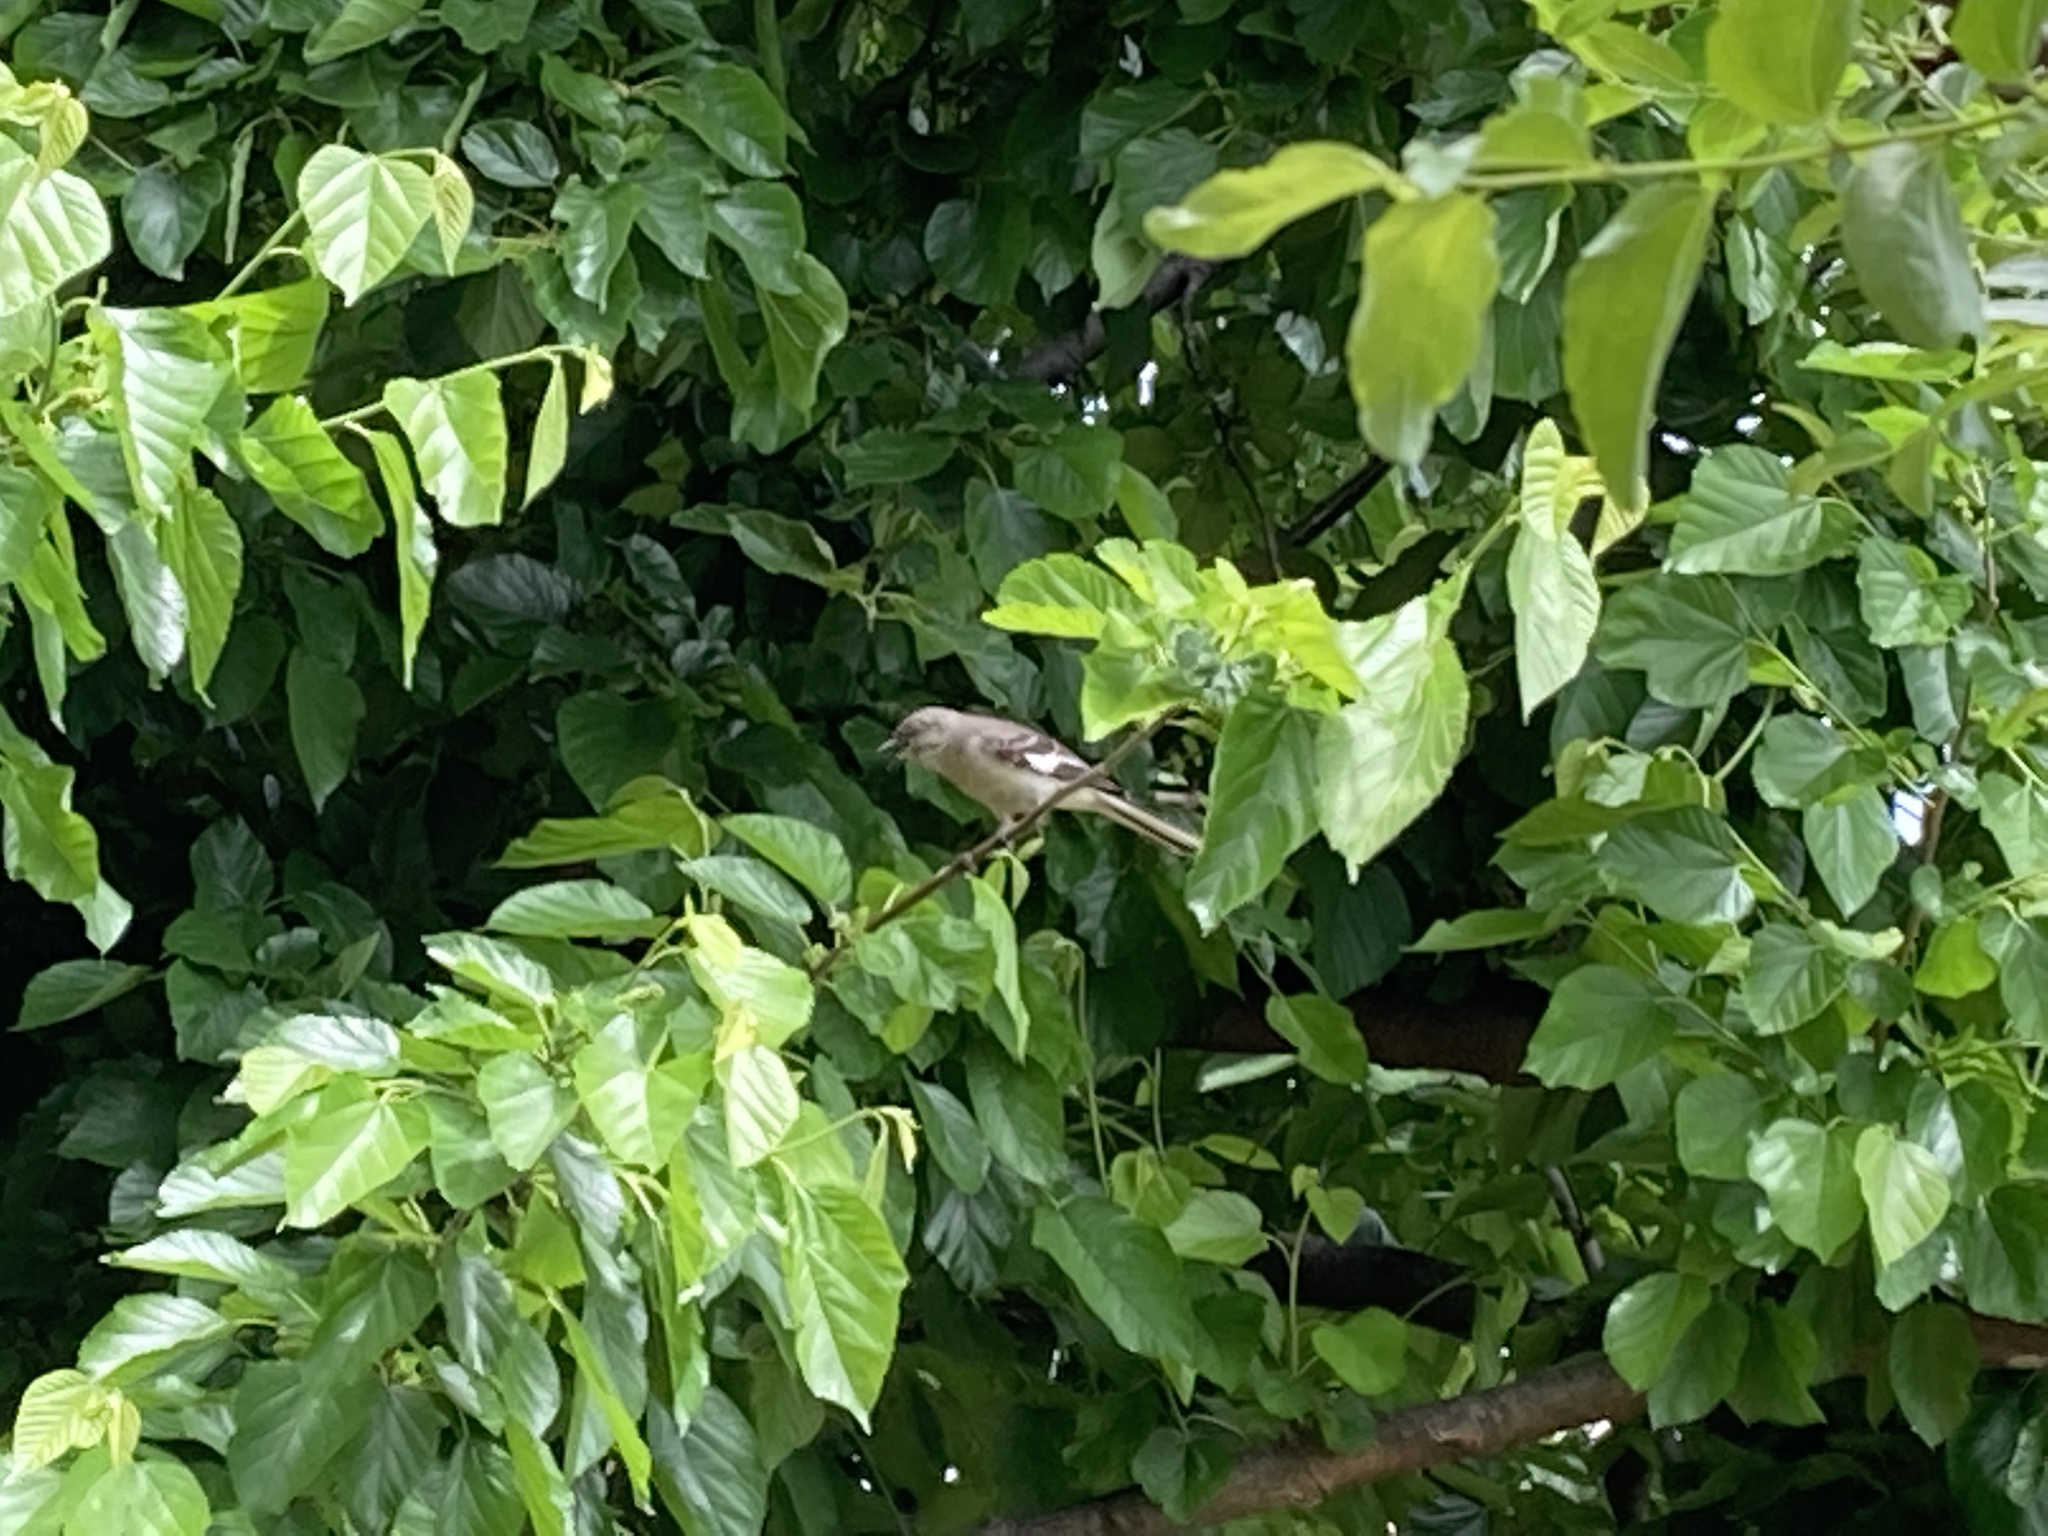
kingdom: Animalia
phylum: Chordata
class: Aves
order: Passeriformes
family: Mimidae
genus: Mimus
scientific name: Mimus polyglottos
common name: Northern mockingbird
